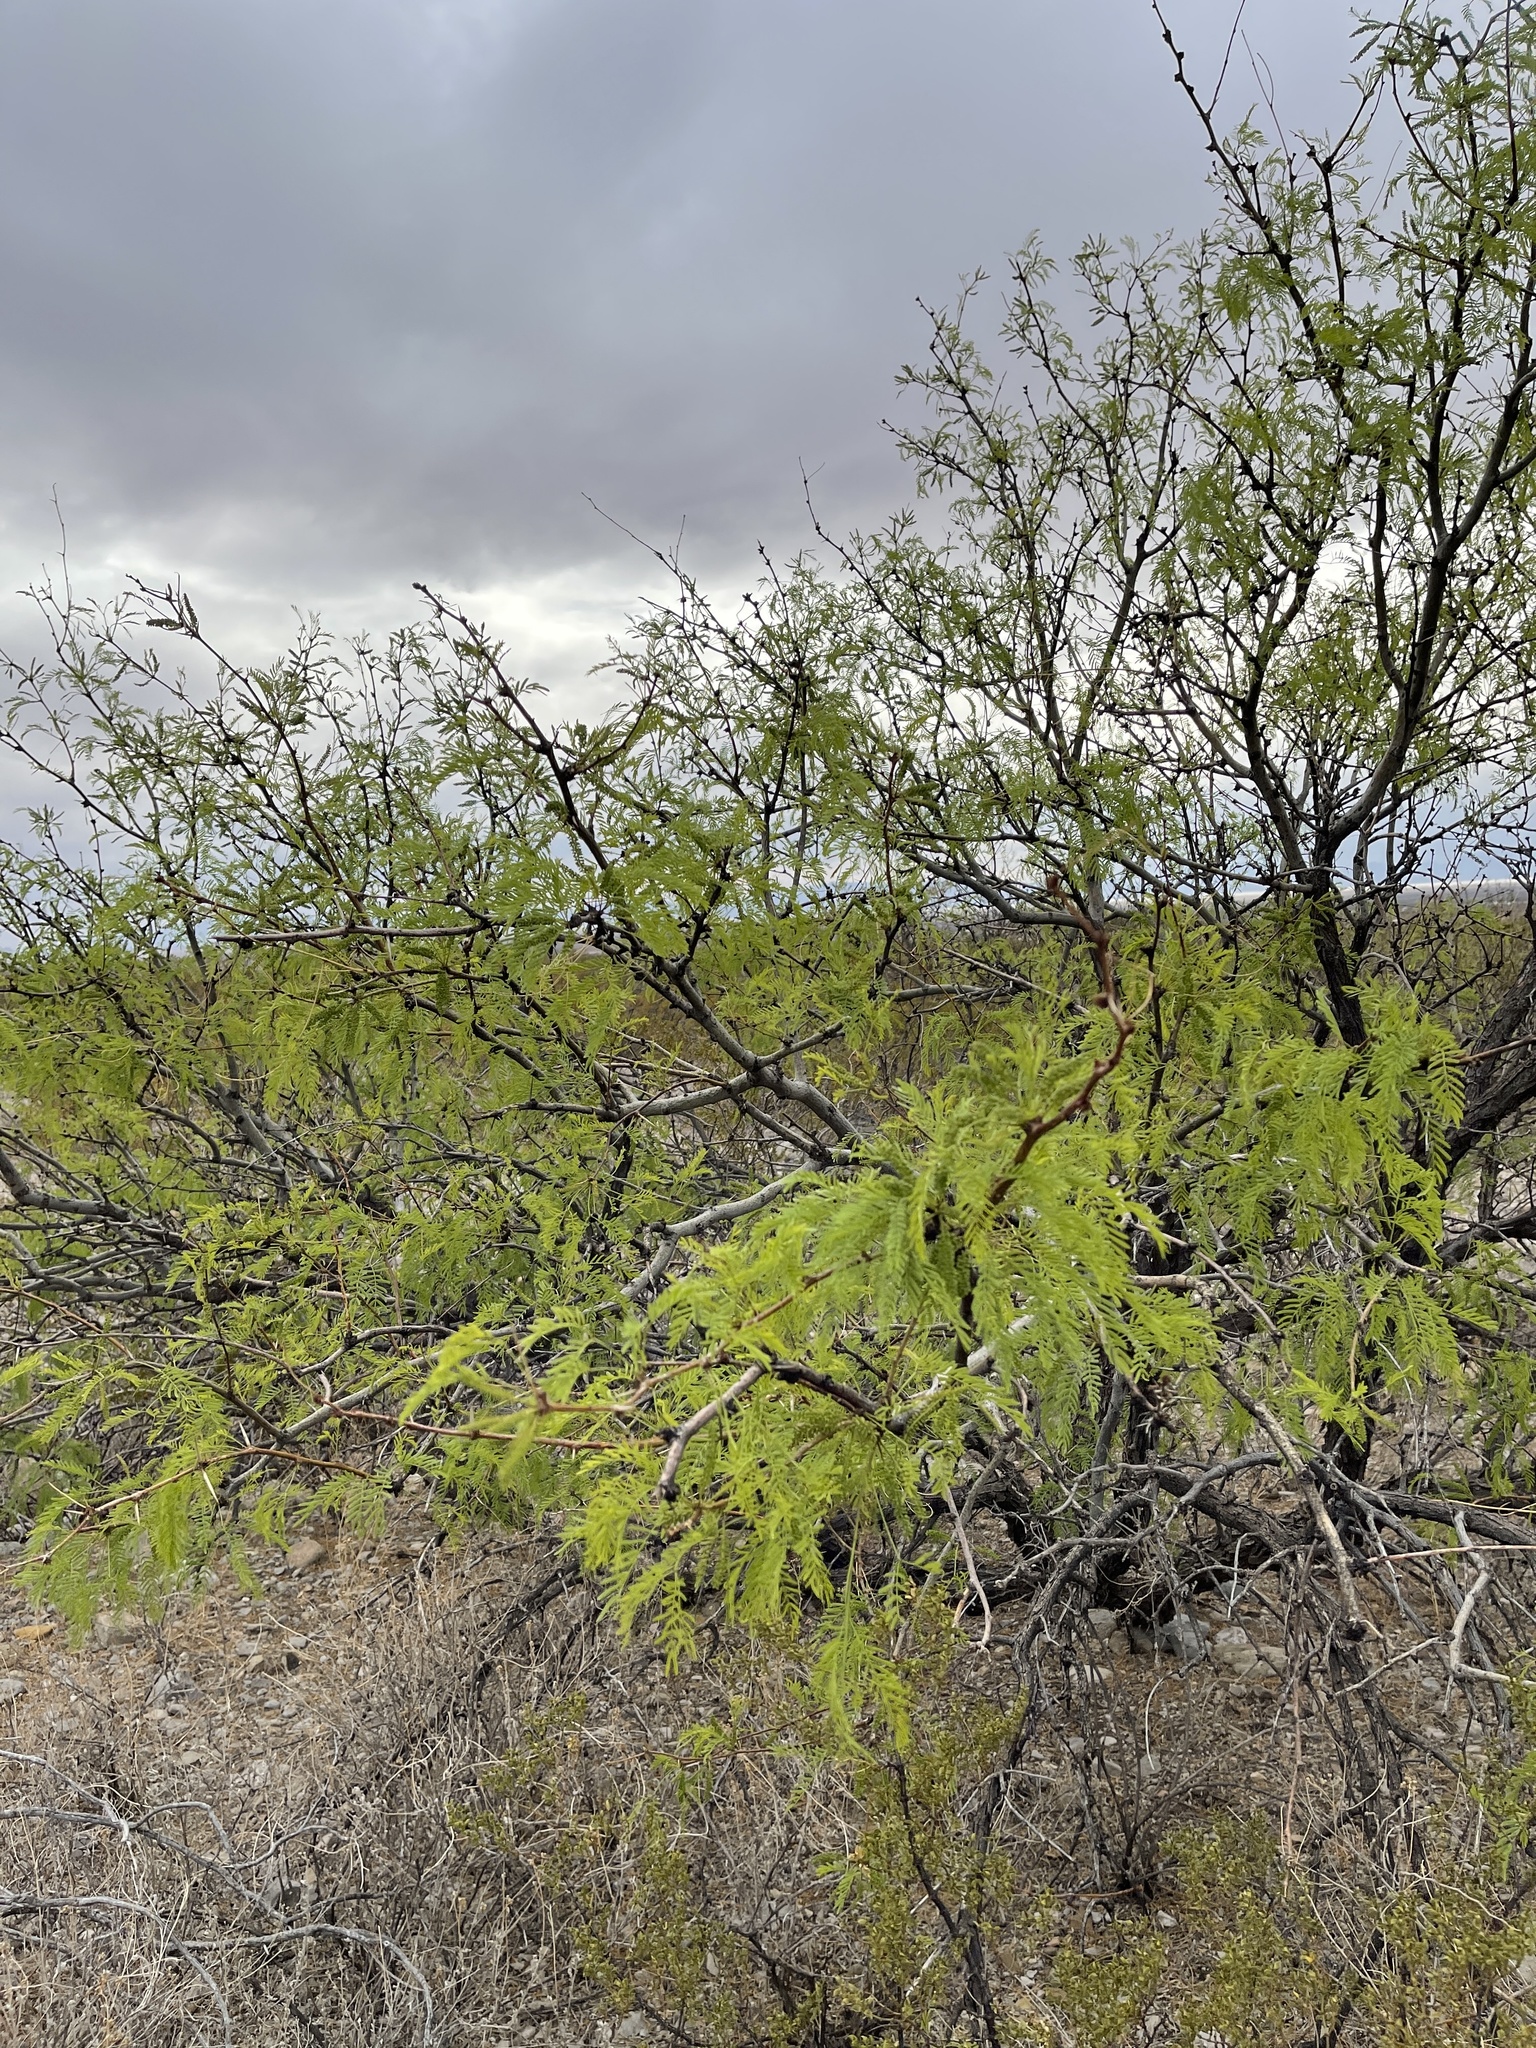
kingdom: Plantae
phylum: Tracheophyta
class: Magnoliopsida
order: Fabales
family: Fabaceae
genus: Prosopis
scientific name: Prosopis glandulosa
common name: Honey mesquite
